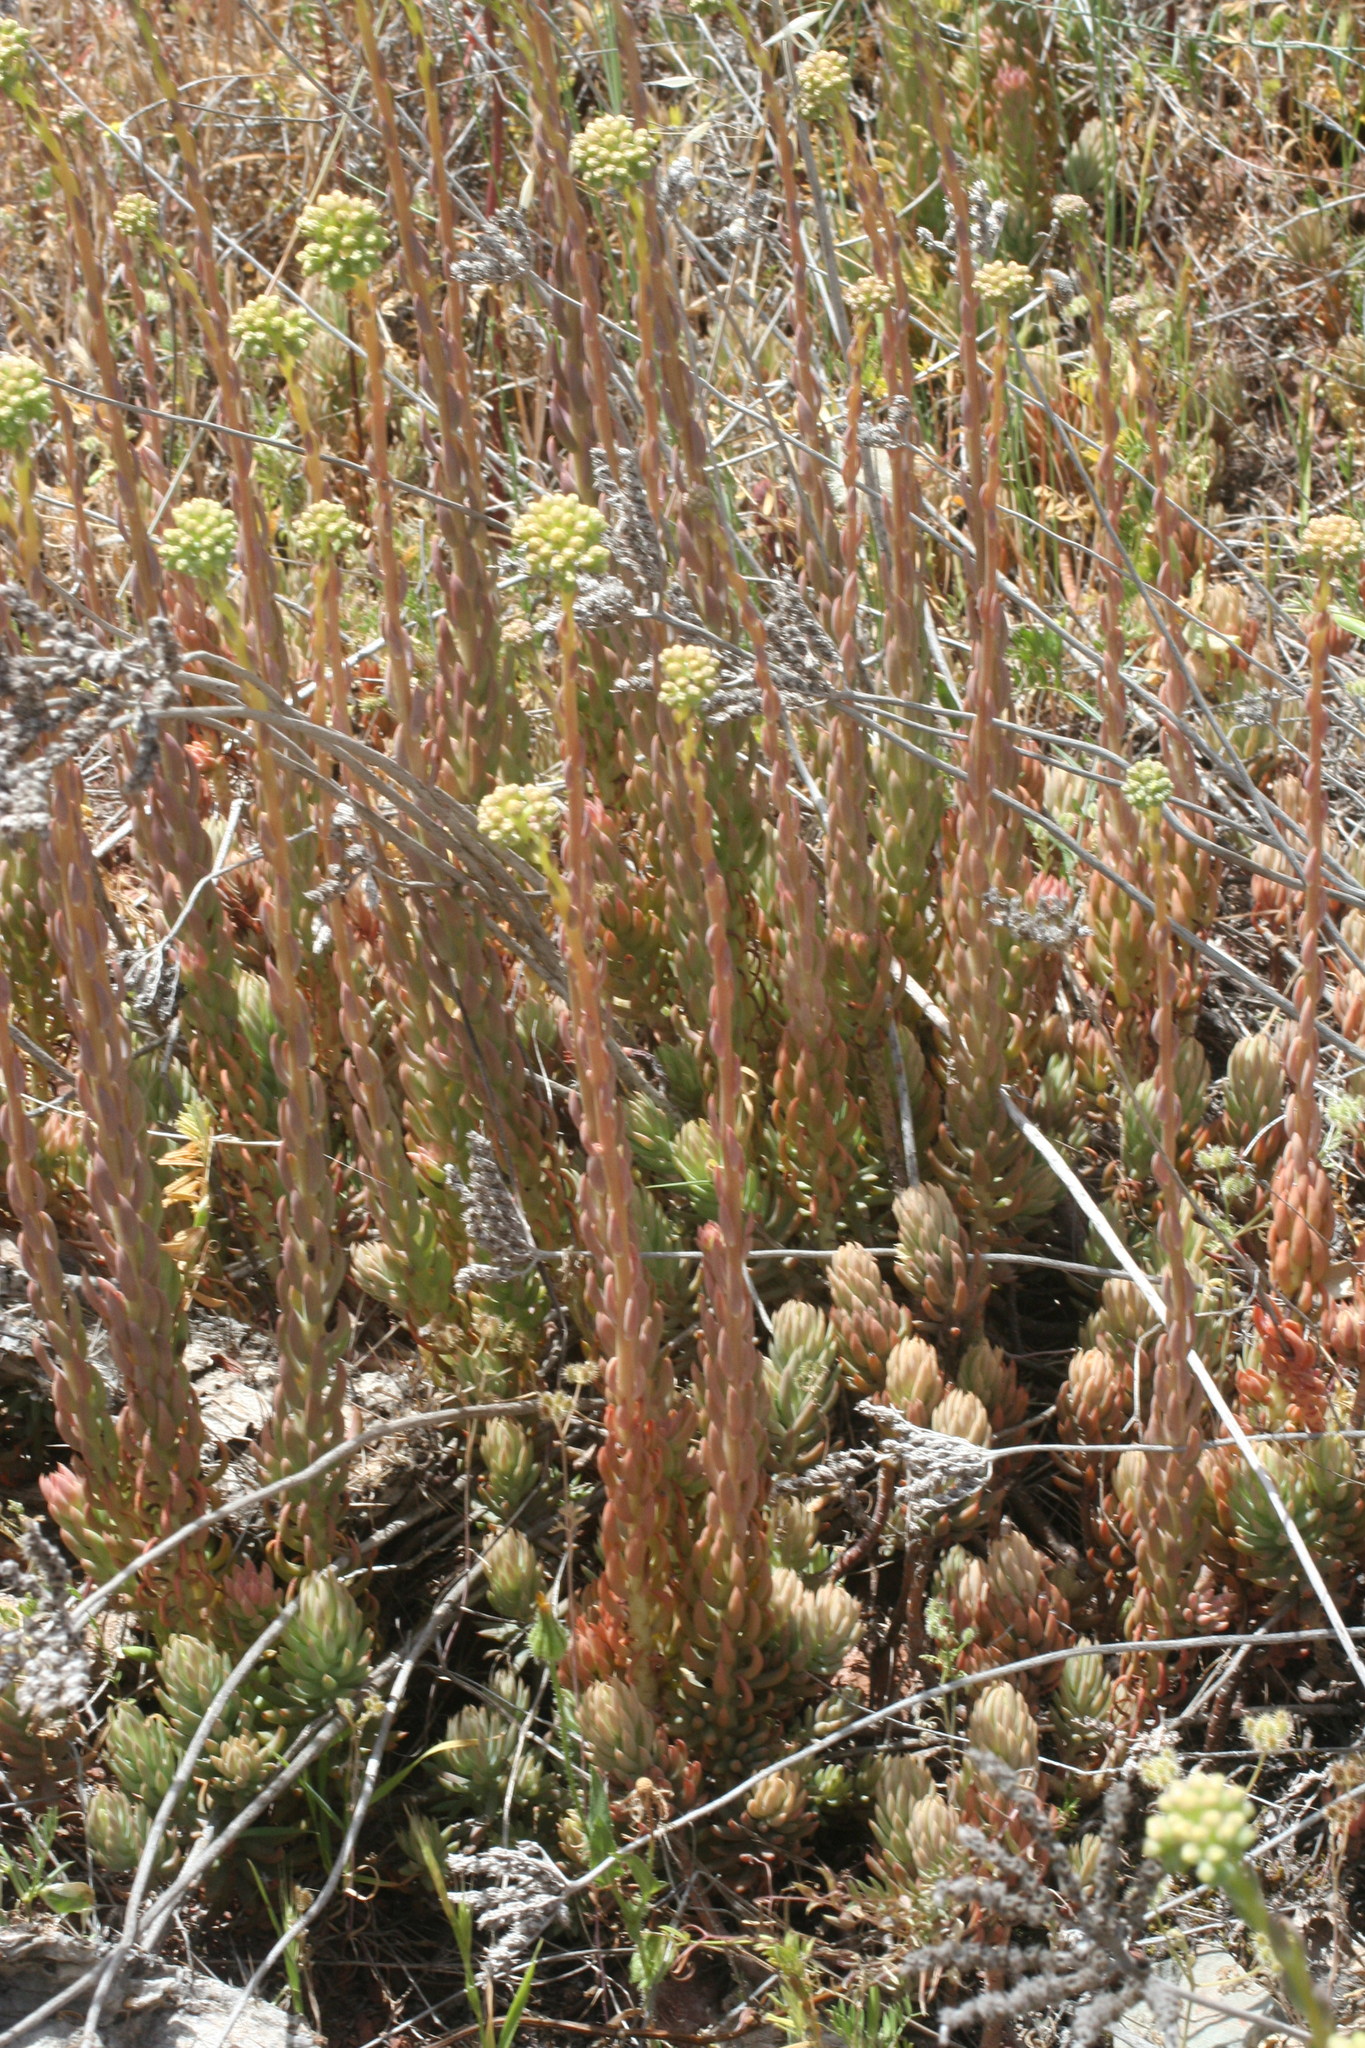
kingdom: Plantae
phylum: Tracheophyta
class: Magnoliopsida
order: Saxifragales
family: Crassulaceae
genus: Petrosedum
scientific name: Petrosedum sediforme
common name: Pale stonecrop
